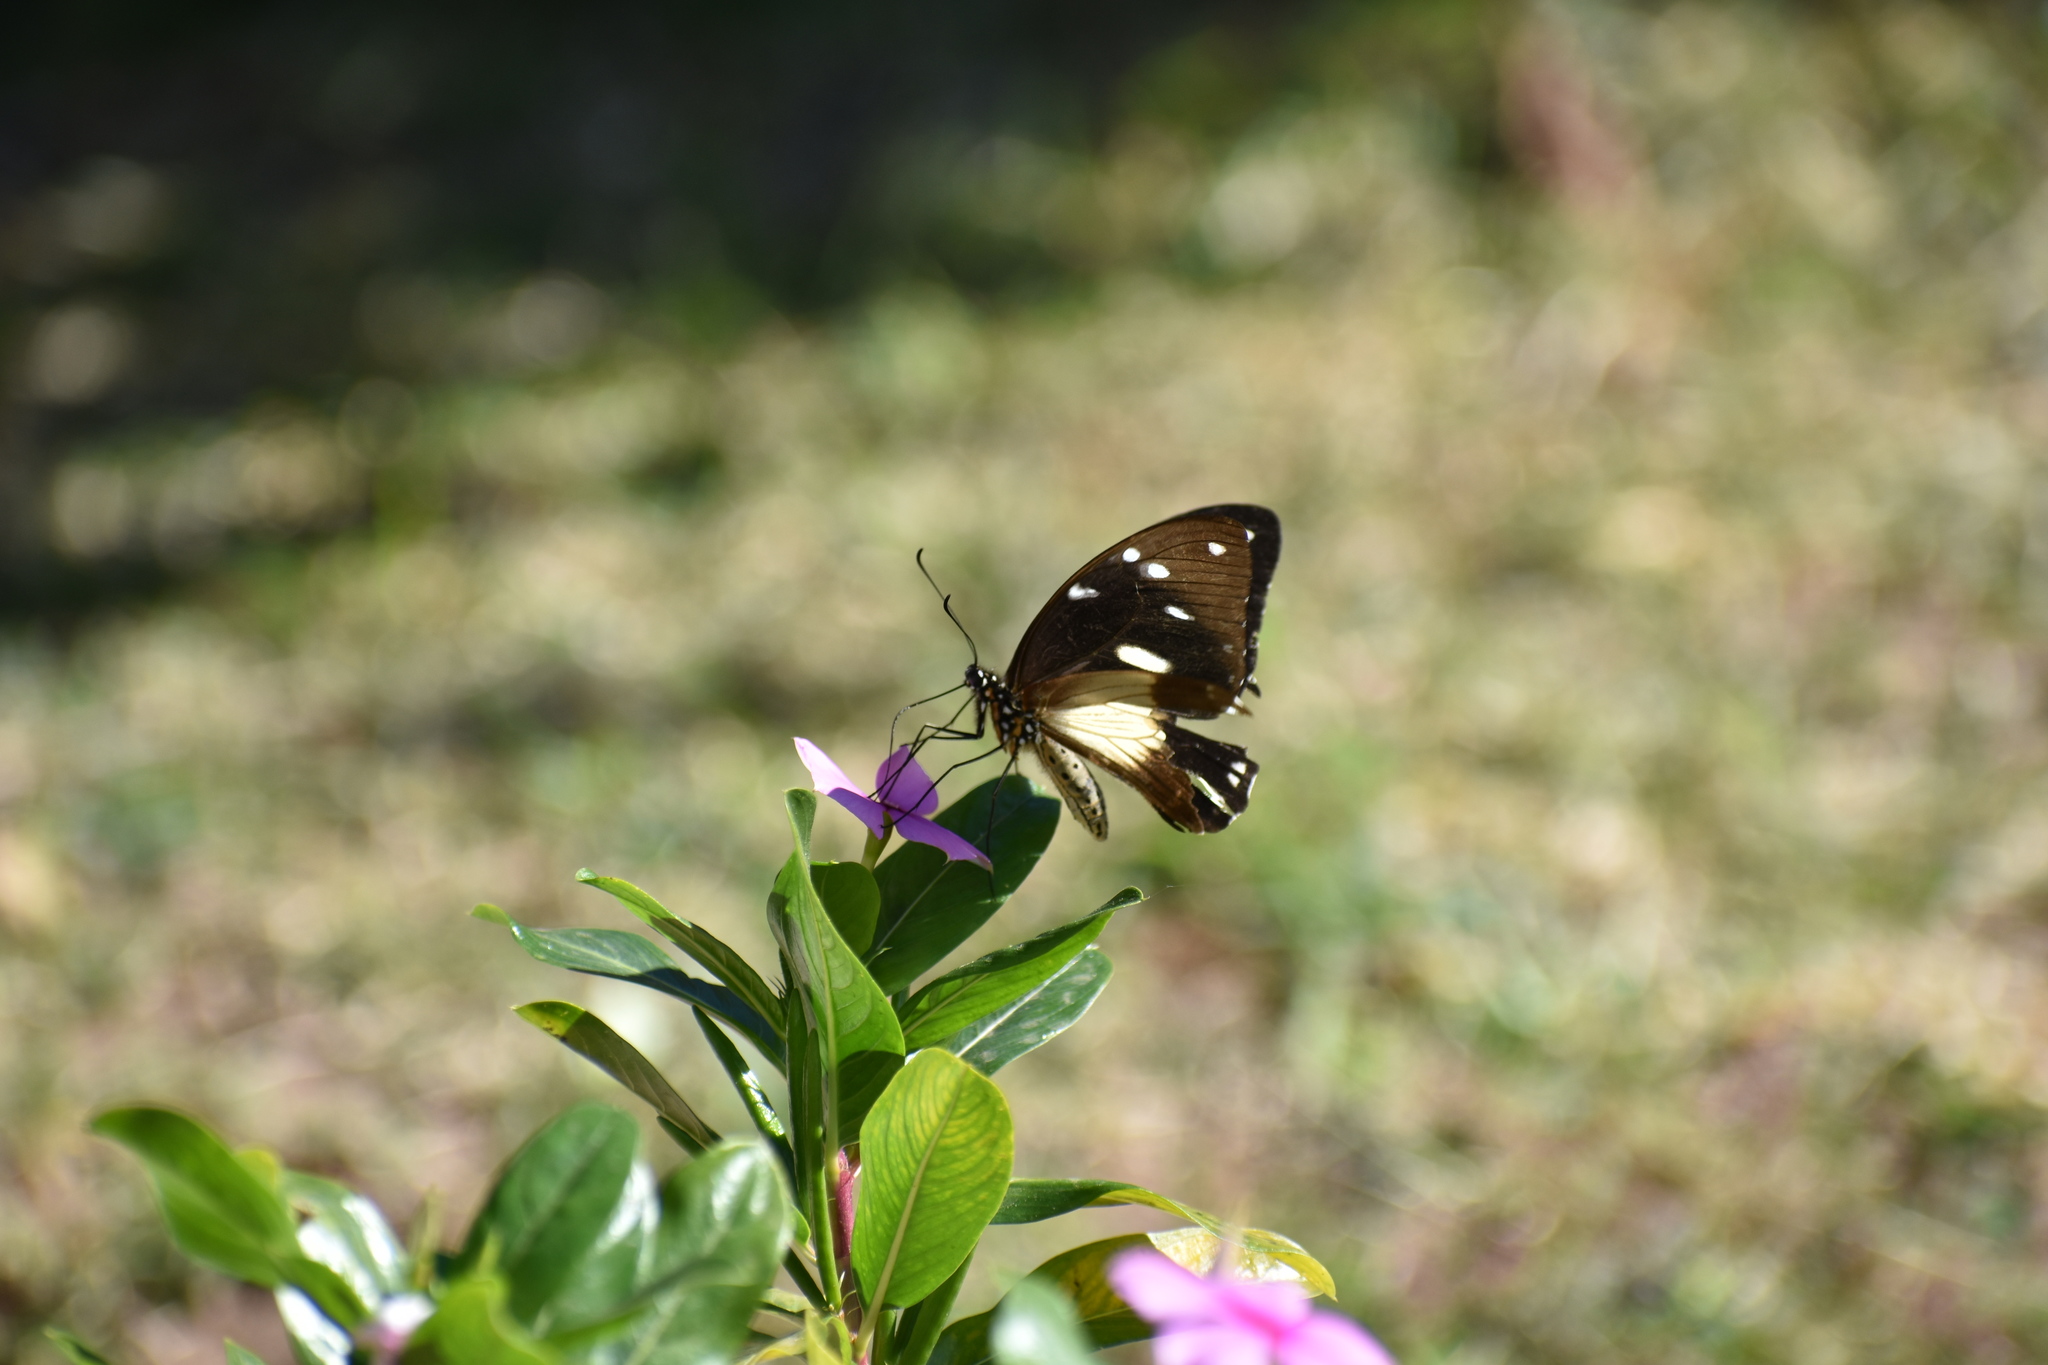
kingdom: Animalia
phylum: Arthropoda
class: Insecta
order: Lepidoptera
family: Papilionidae
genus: Papilio
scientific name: Papilio dardanus
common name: Flying handkerchief
